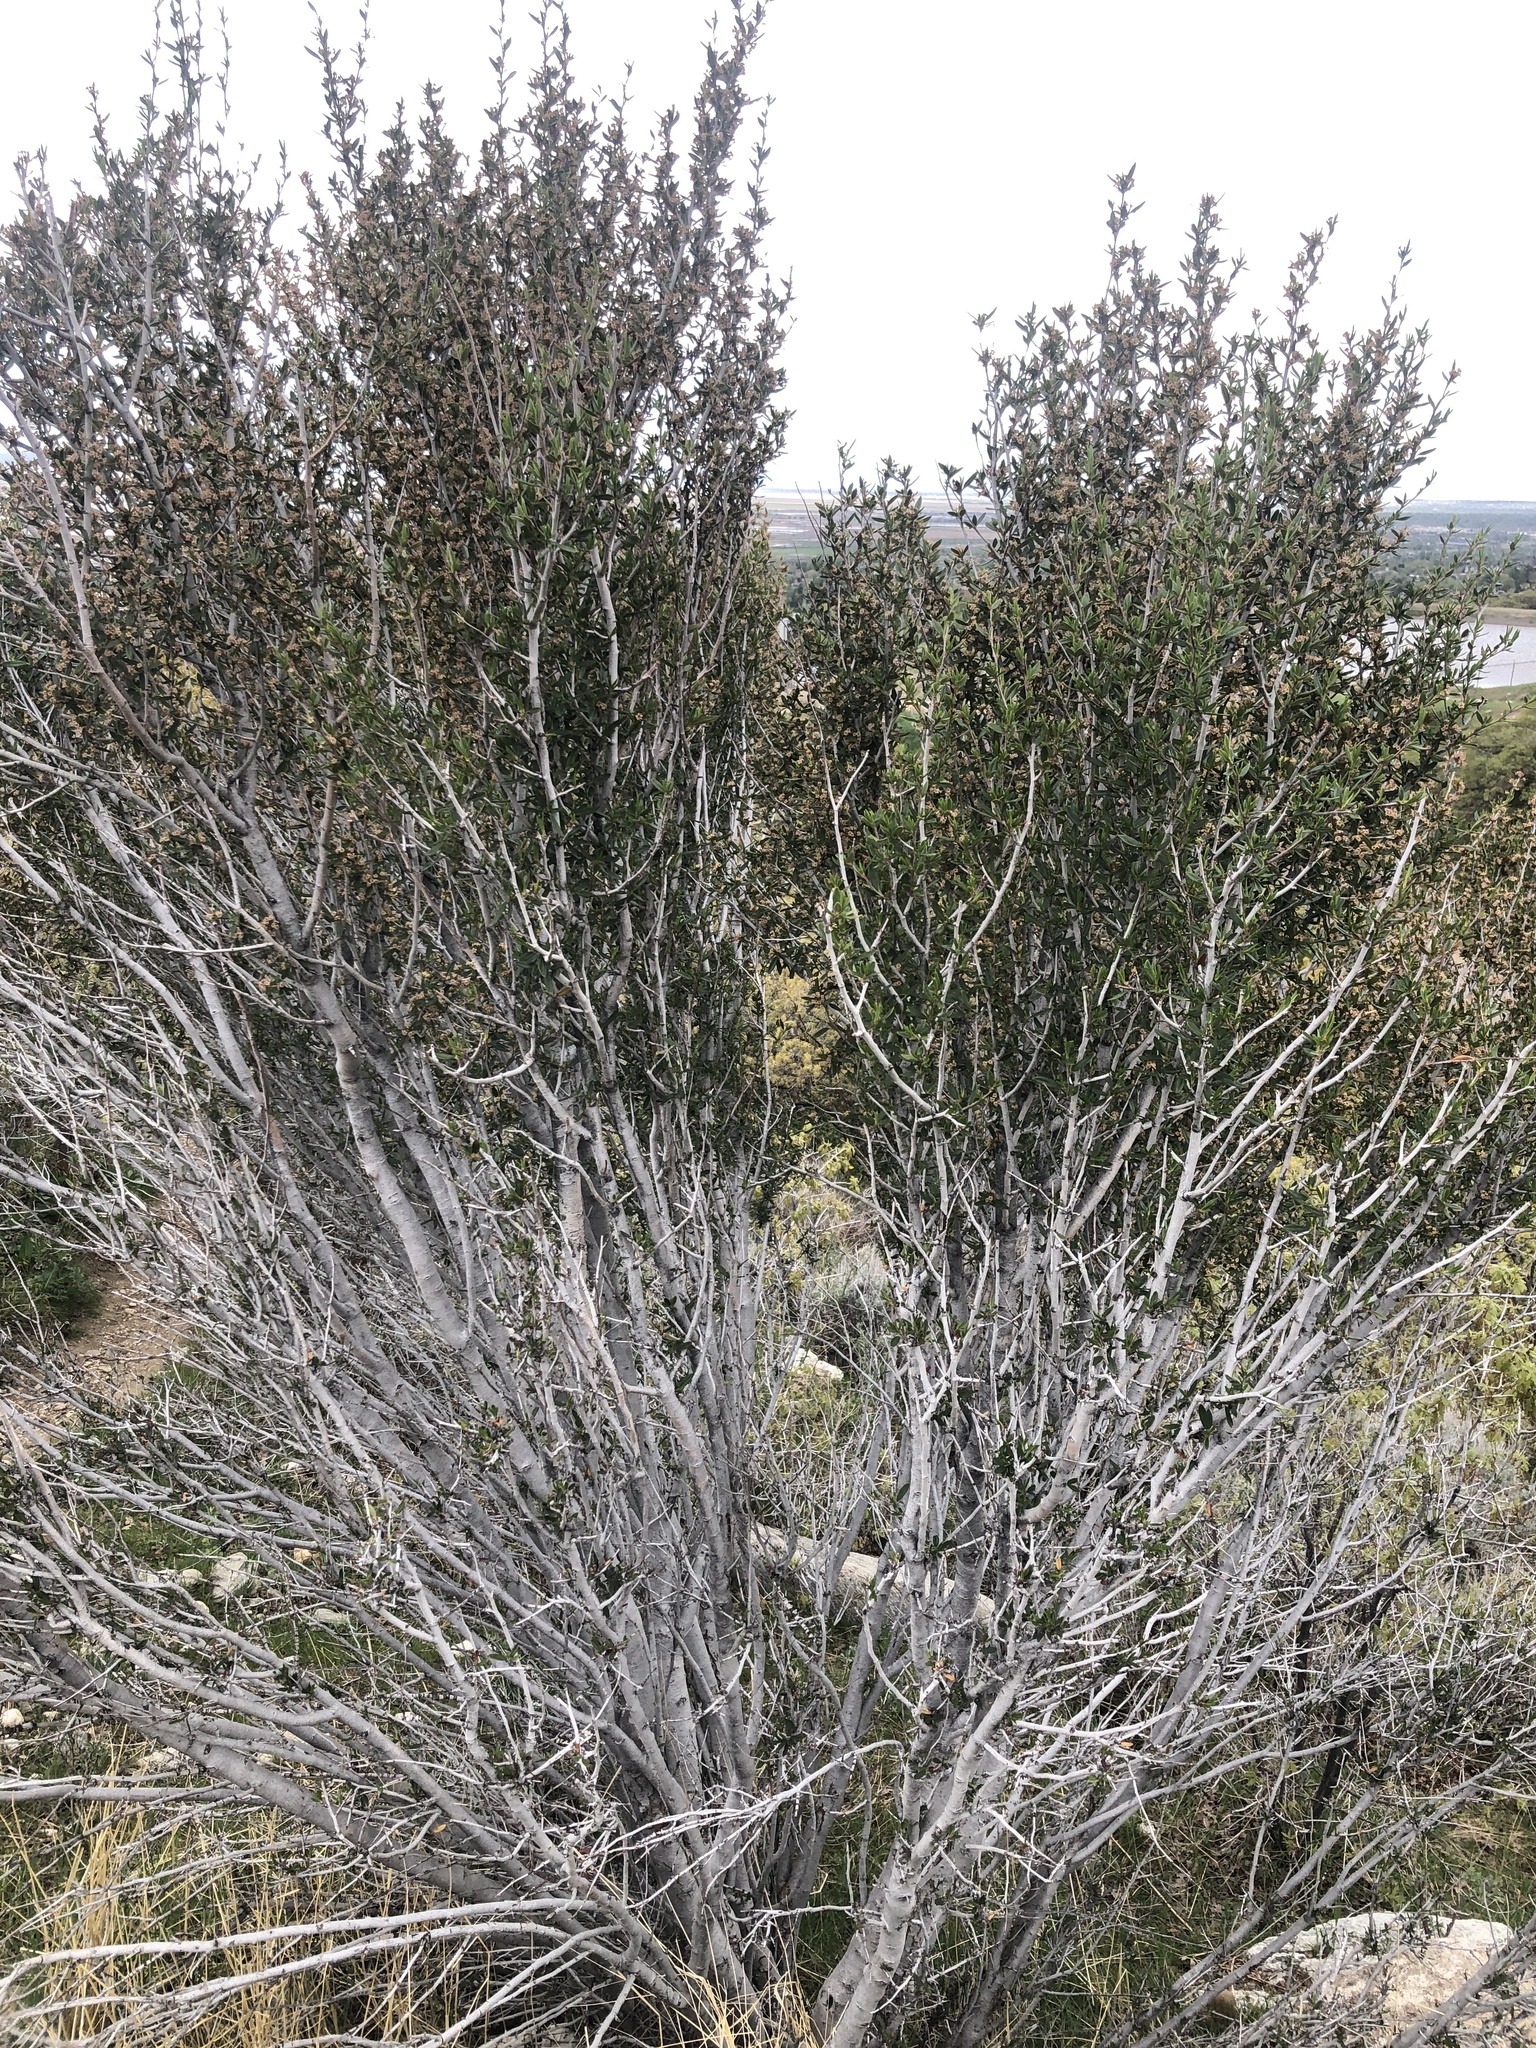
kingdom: Plantae
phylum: Tracheophyta
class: Magnoliopsida
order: Rosales
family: Rosaceae
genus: Cercocarpus
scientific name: Cercocarpus ledifolius
